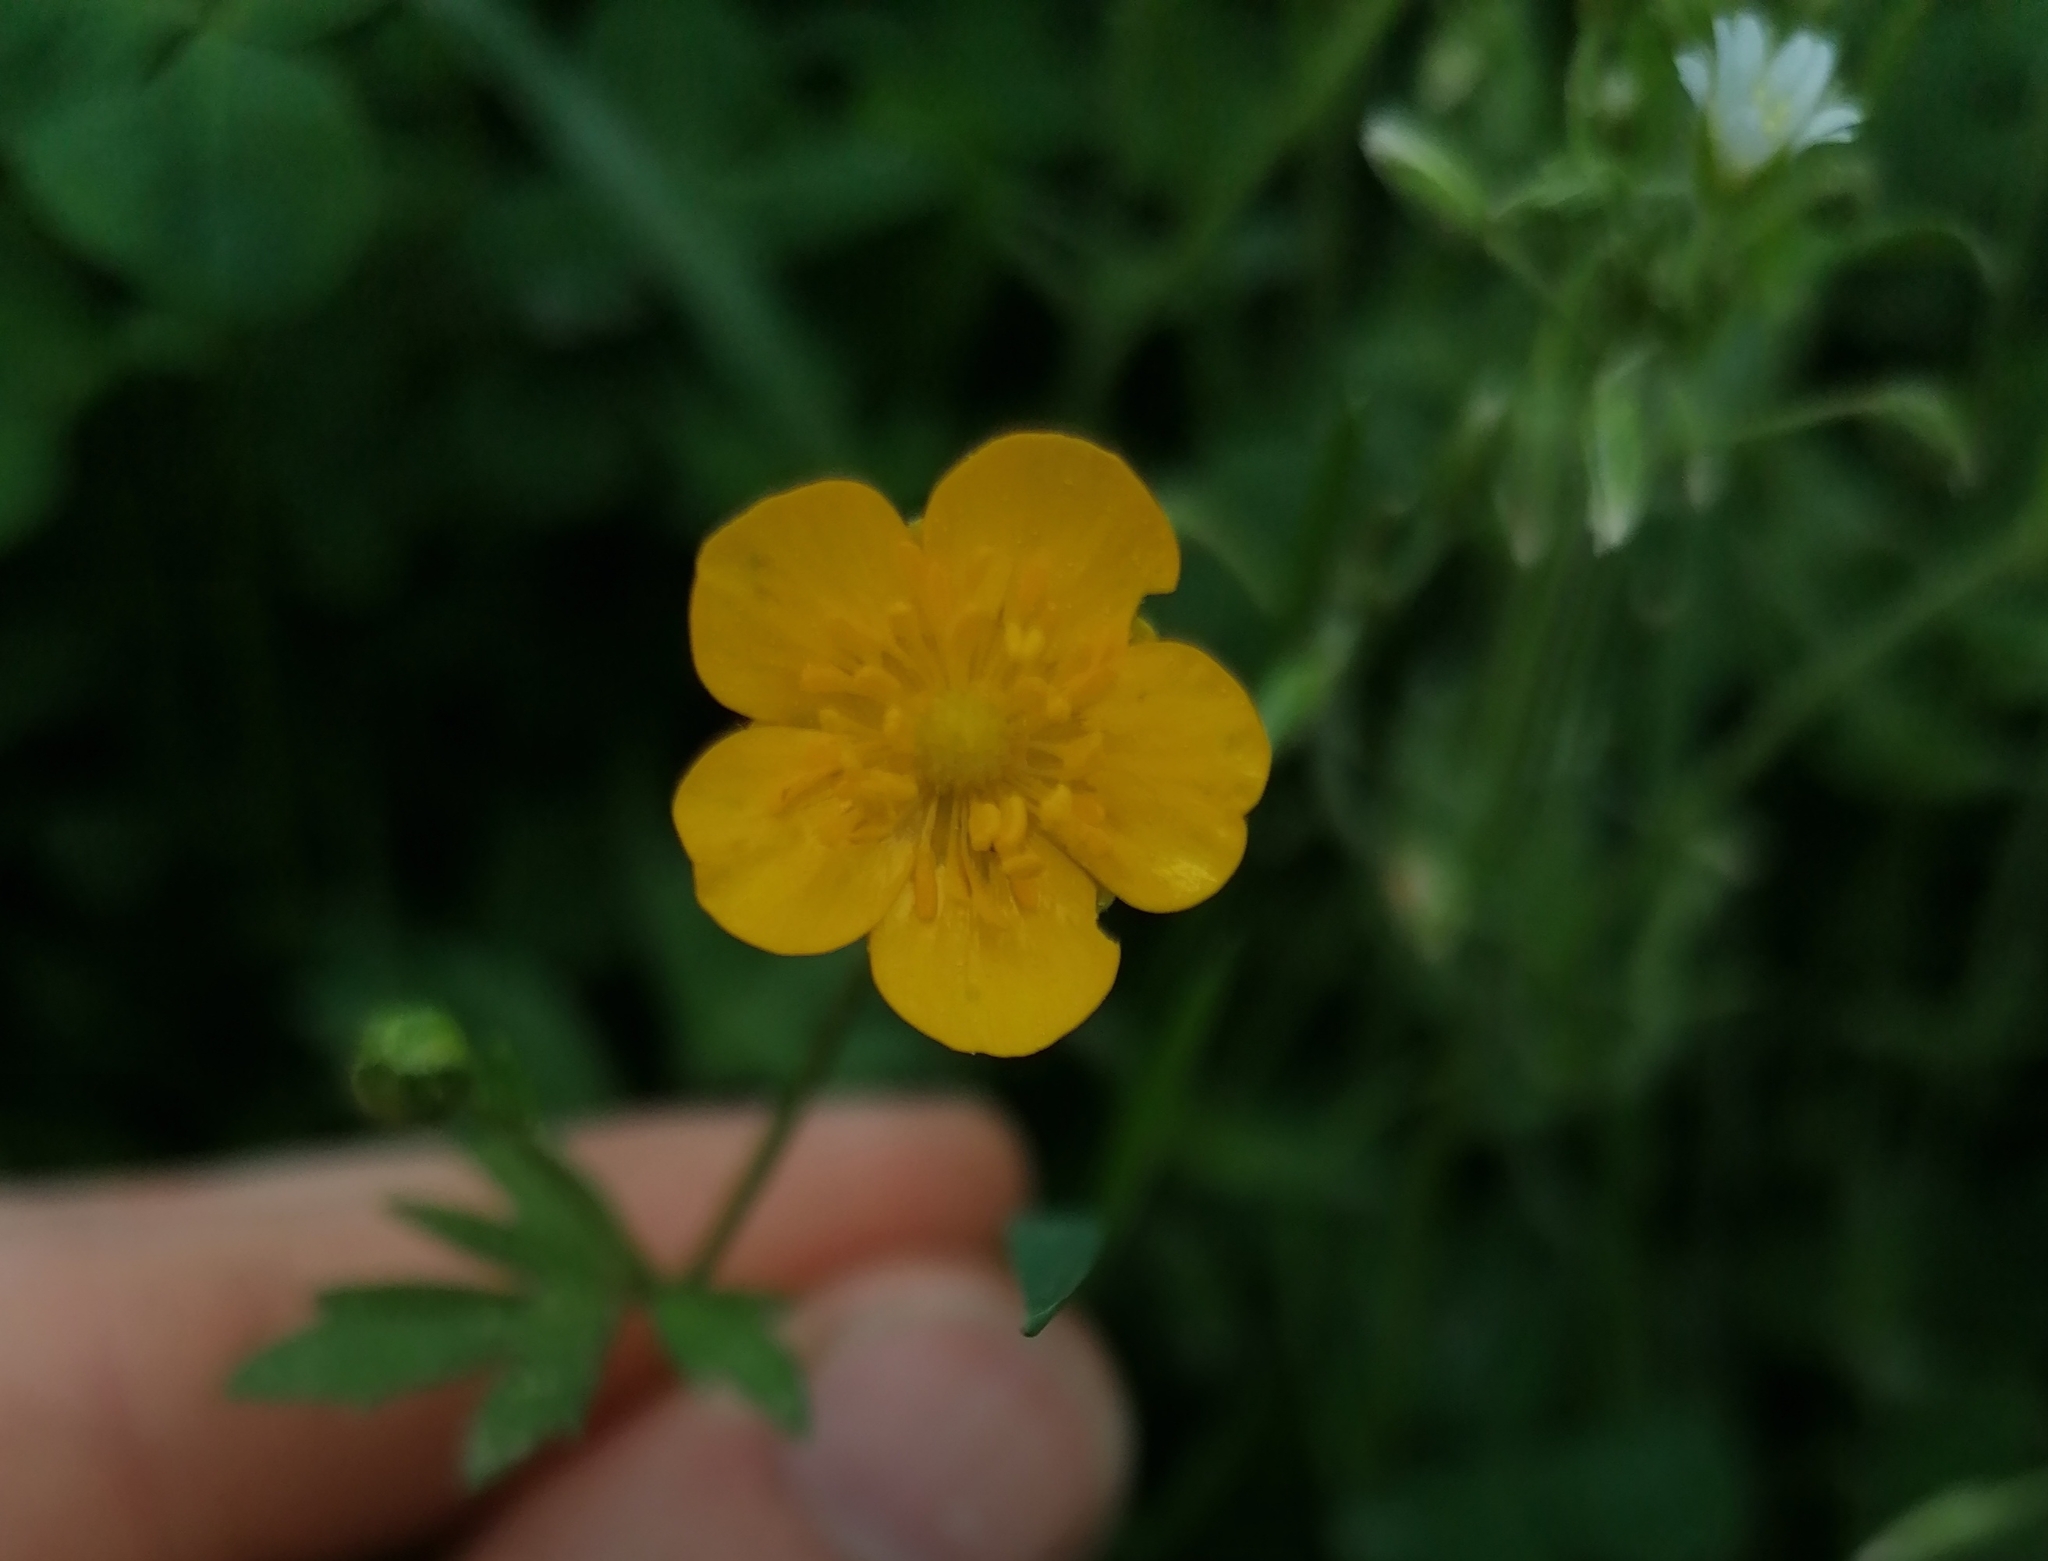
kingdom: Plantae
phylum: Tracheophyta
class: Magnoliopsida
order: Ranunculales
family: Ranunculaceae
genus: Ranunculus
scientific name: Ranunculus repens
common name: Creeping buttercup
